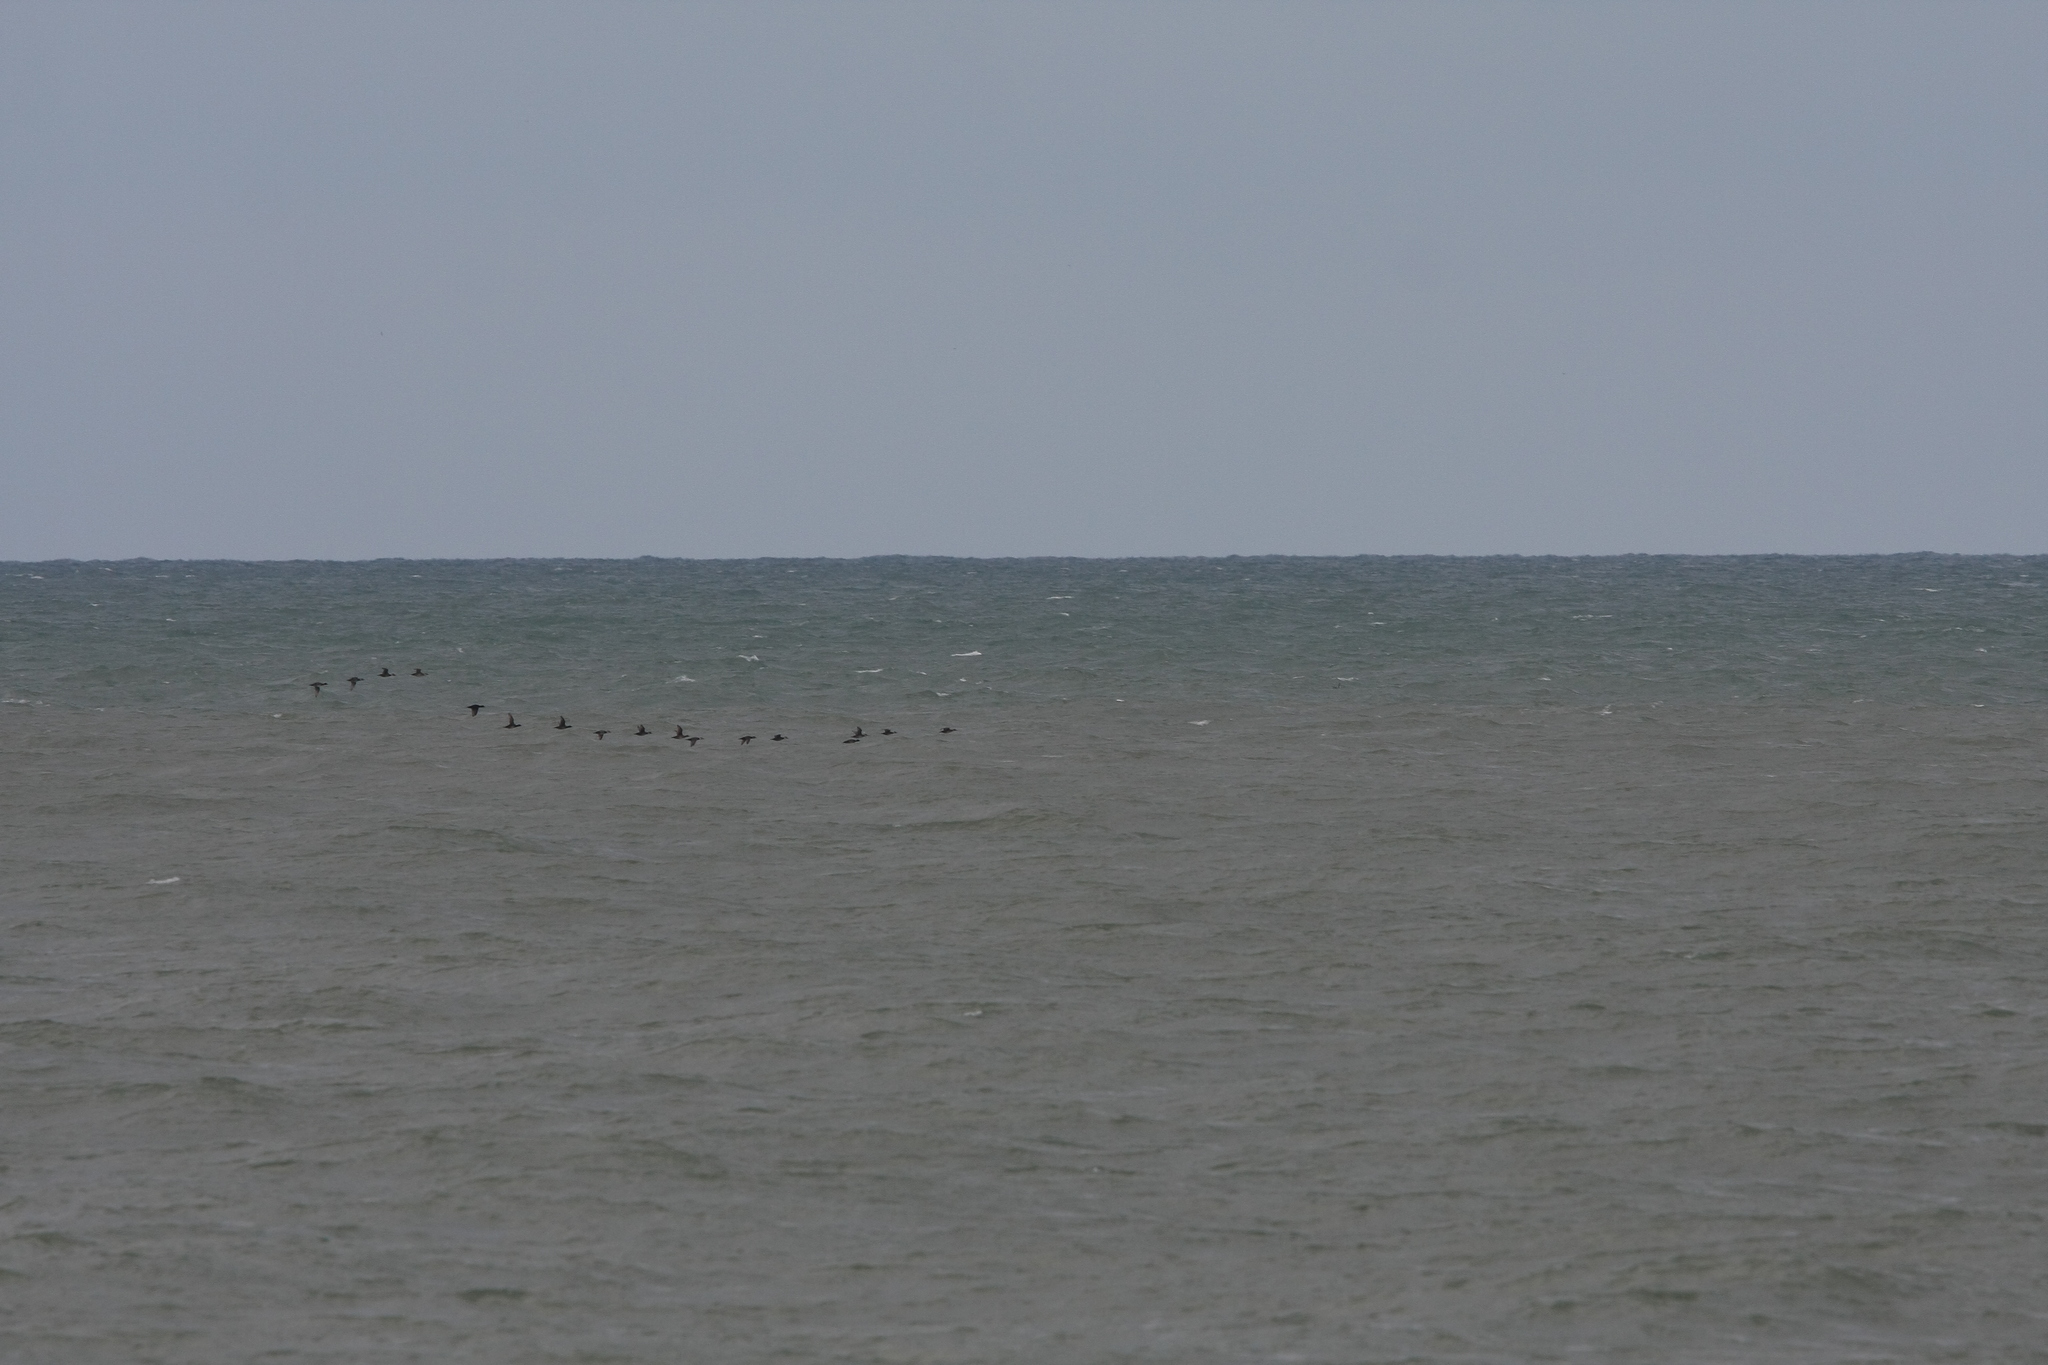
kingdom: Animalia
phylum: Chordata
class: Aves
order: Anseriformes
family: Anatidae
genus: Melanitta
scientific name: Melanitta nigra
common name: Common scoter
